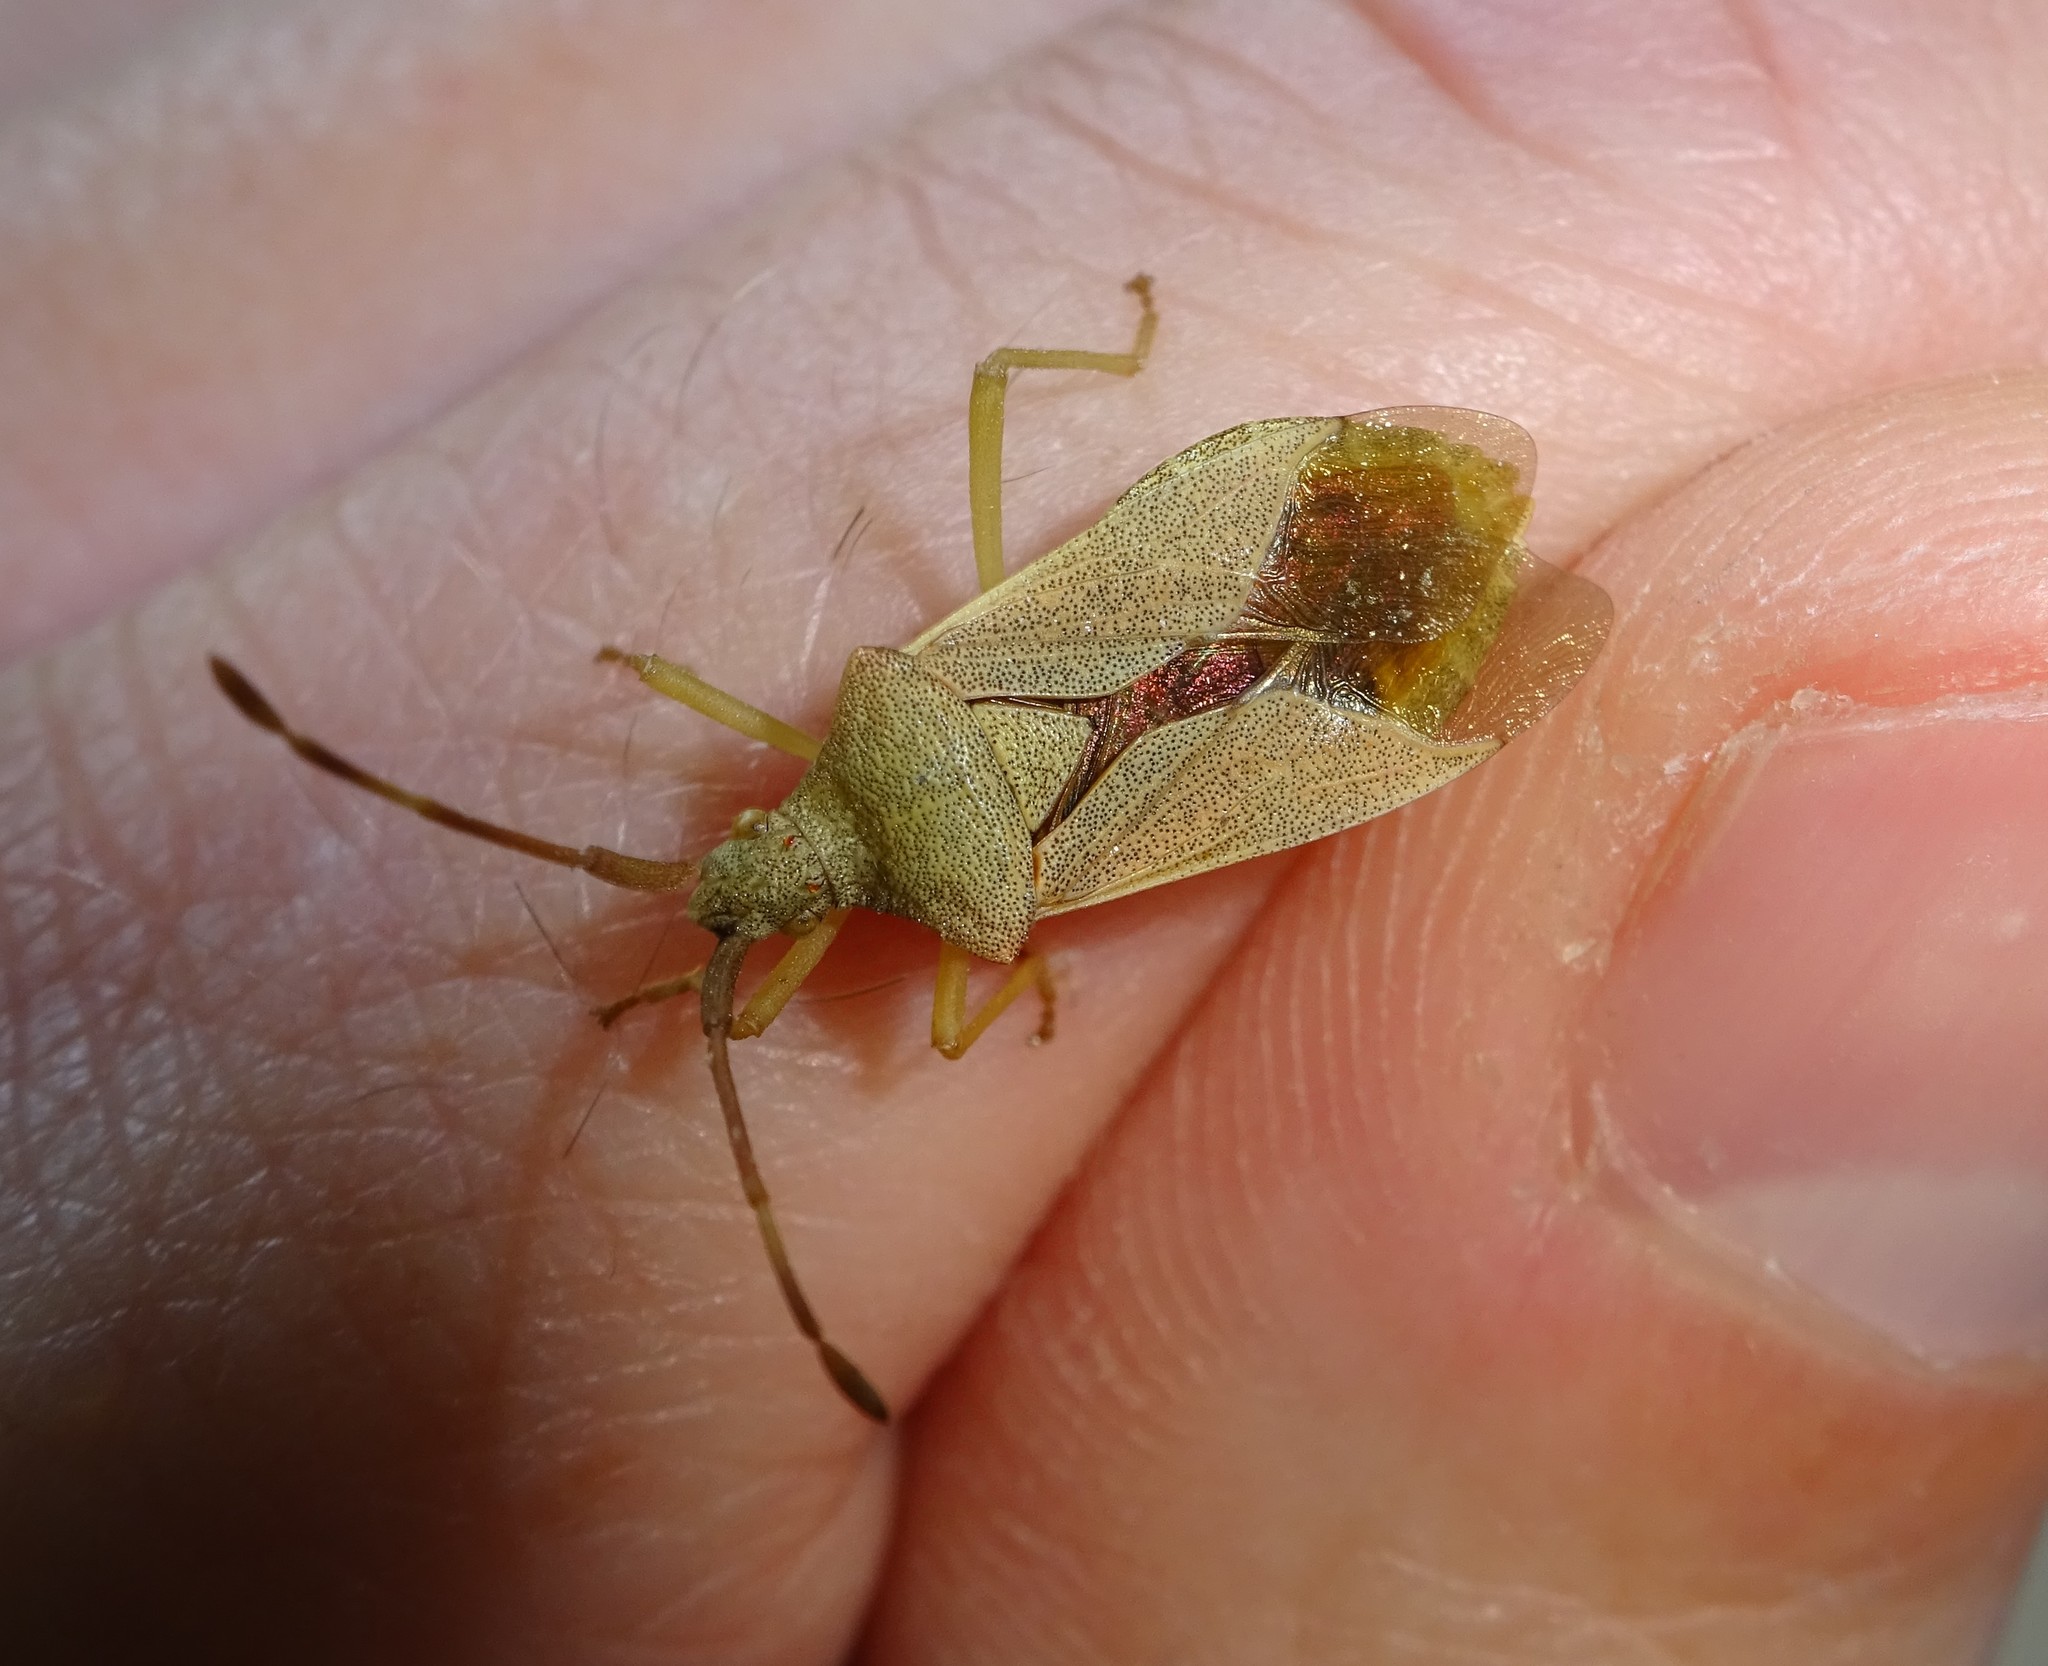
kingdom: Animalia
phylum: Arthropoda
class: Insecta
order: Hemiptera
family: Coreidae
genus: Gonocerus
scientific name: Gonocerus acuteangulatus
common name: Box bug
